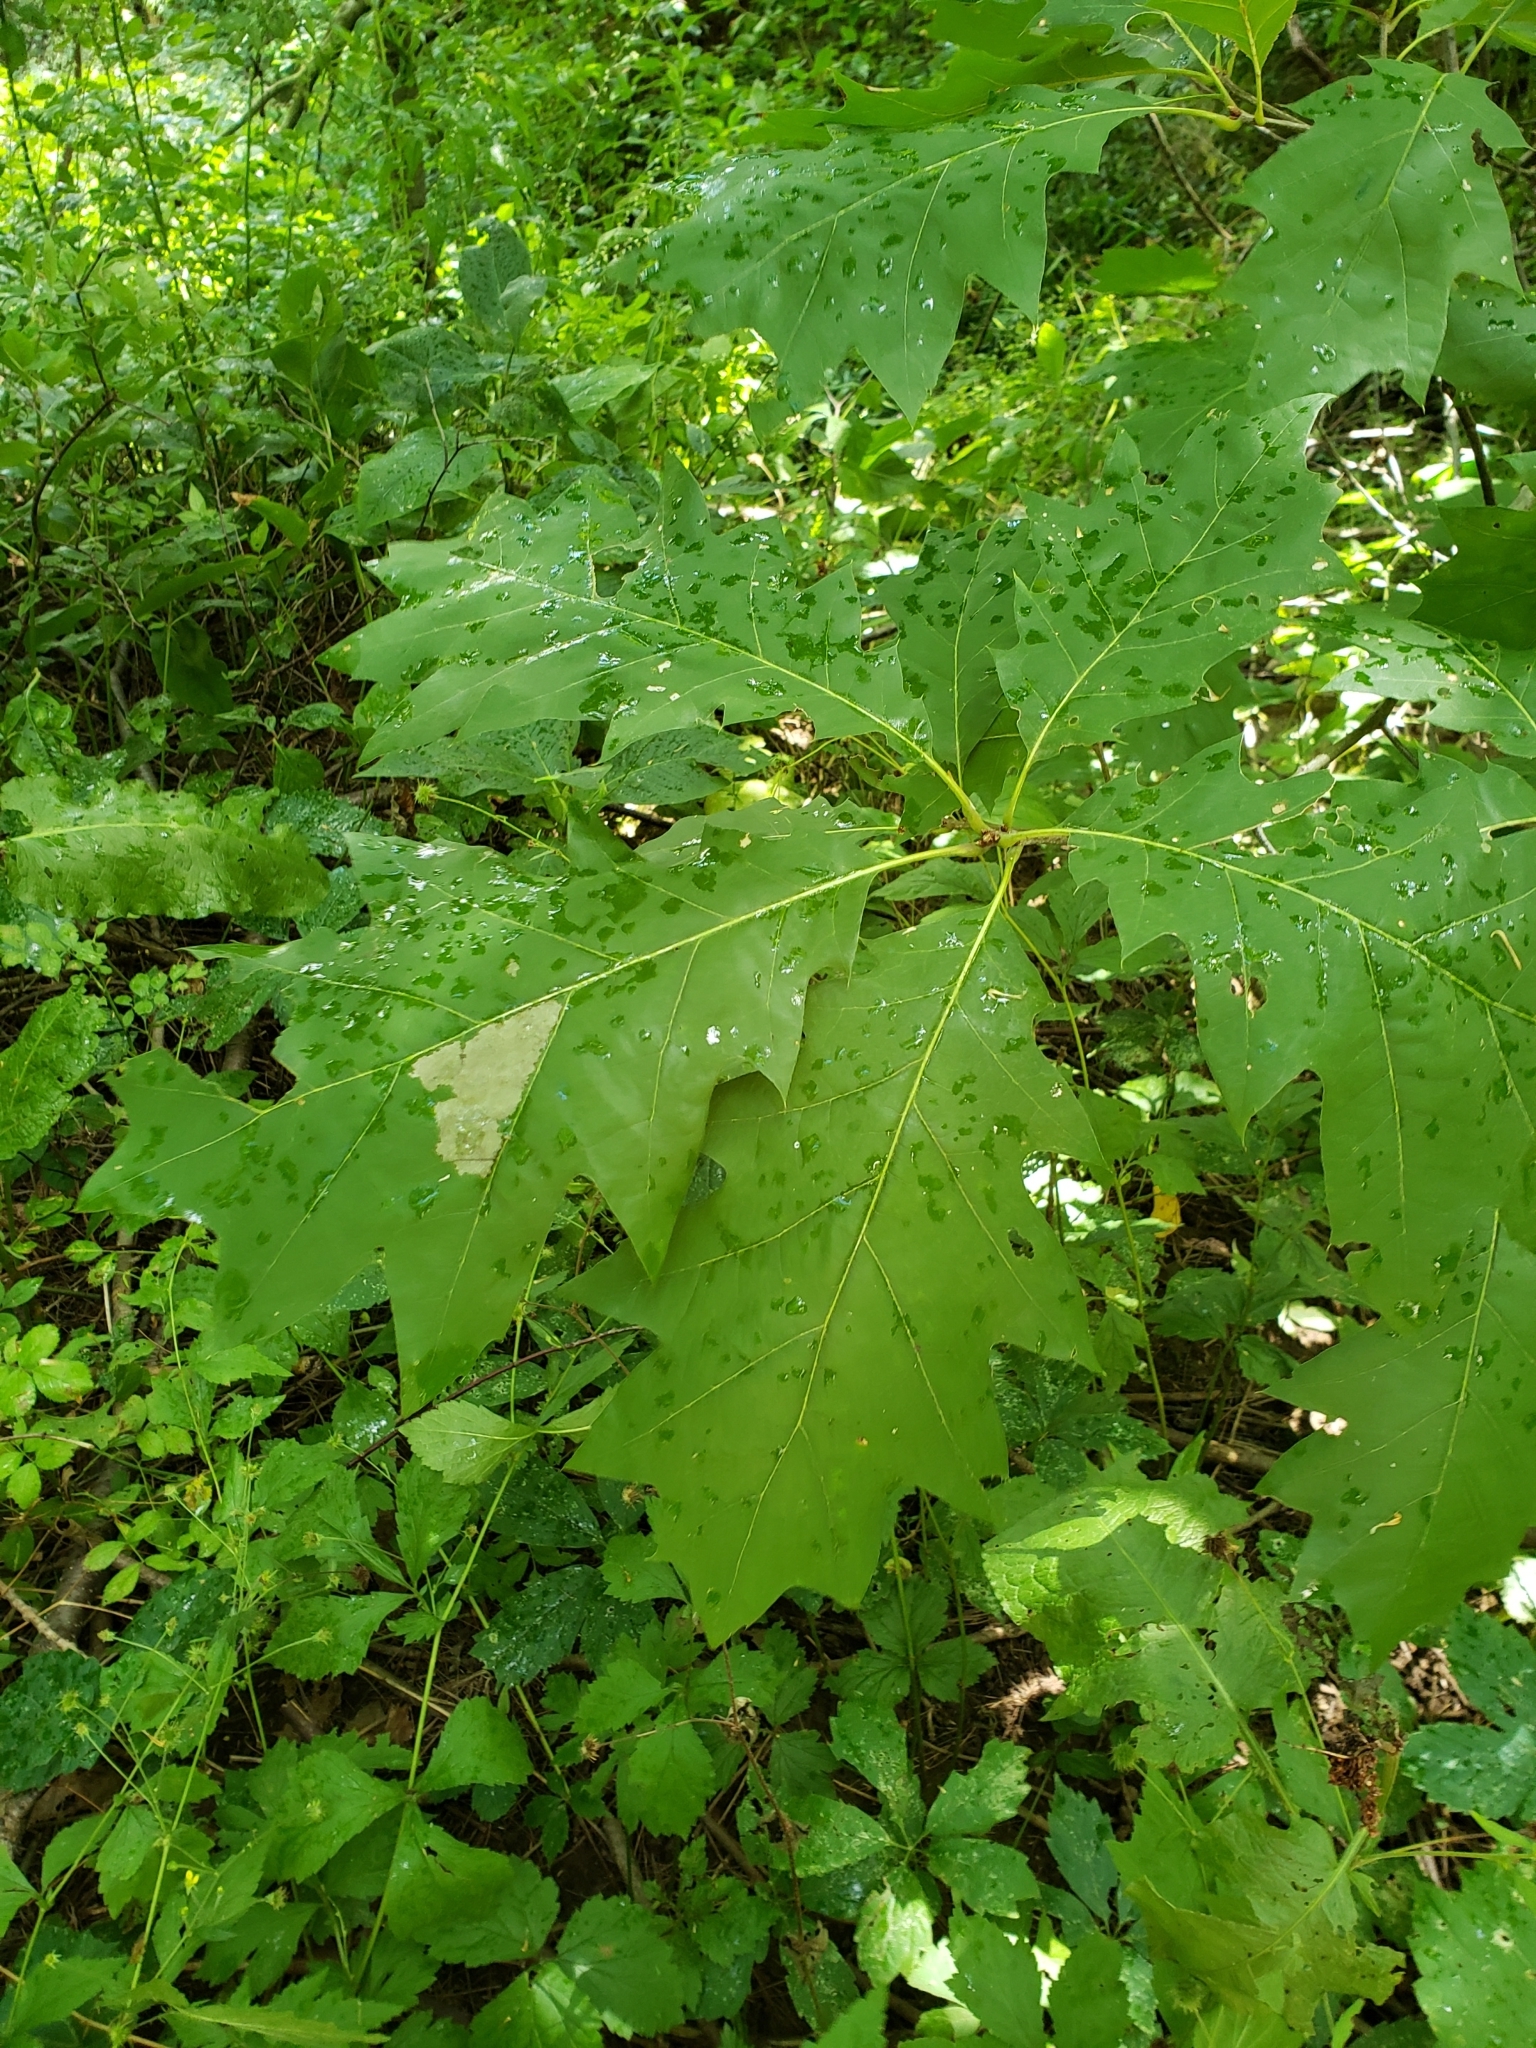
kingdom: Plantae
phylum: Tracheophyta
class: Magnoliopsida
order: Fagales
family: Fagaceae
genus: Quercus
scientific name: Quercus rubra
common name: Red oak
